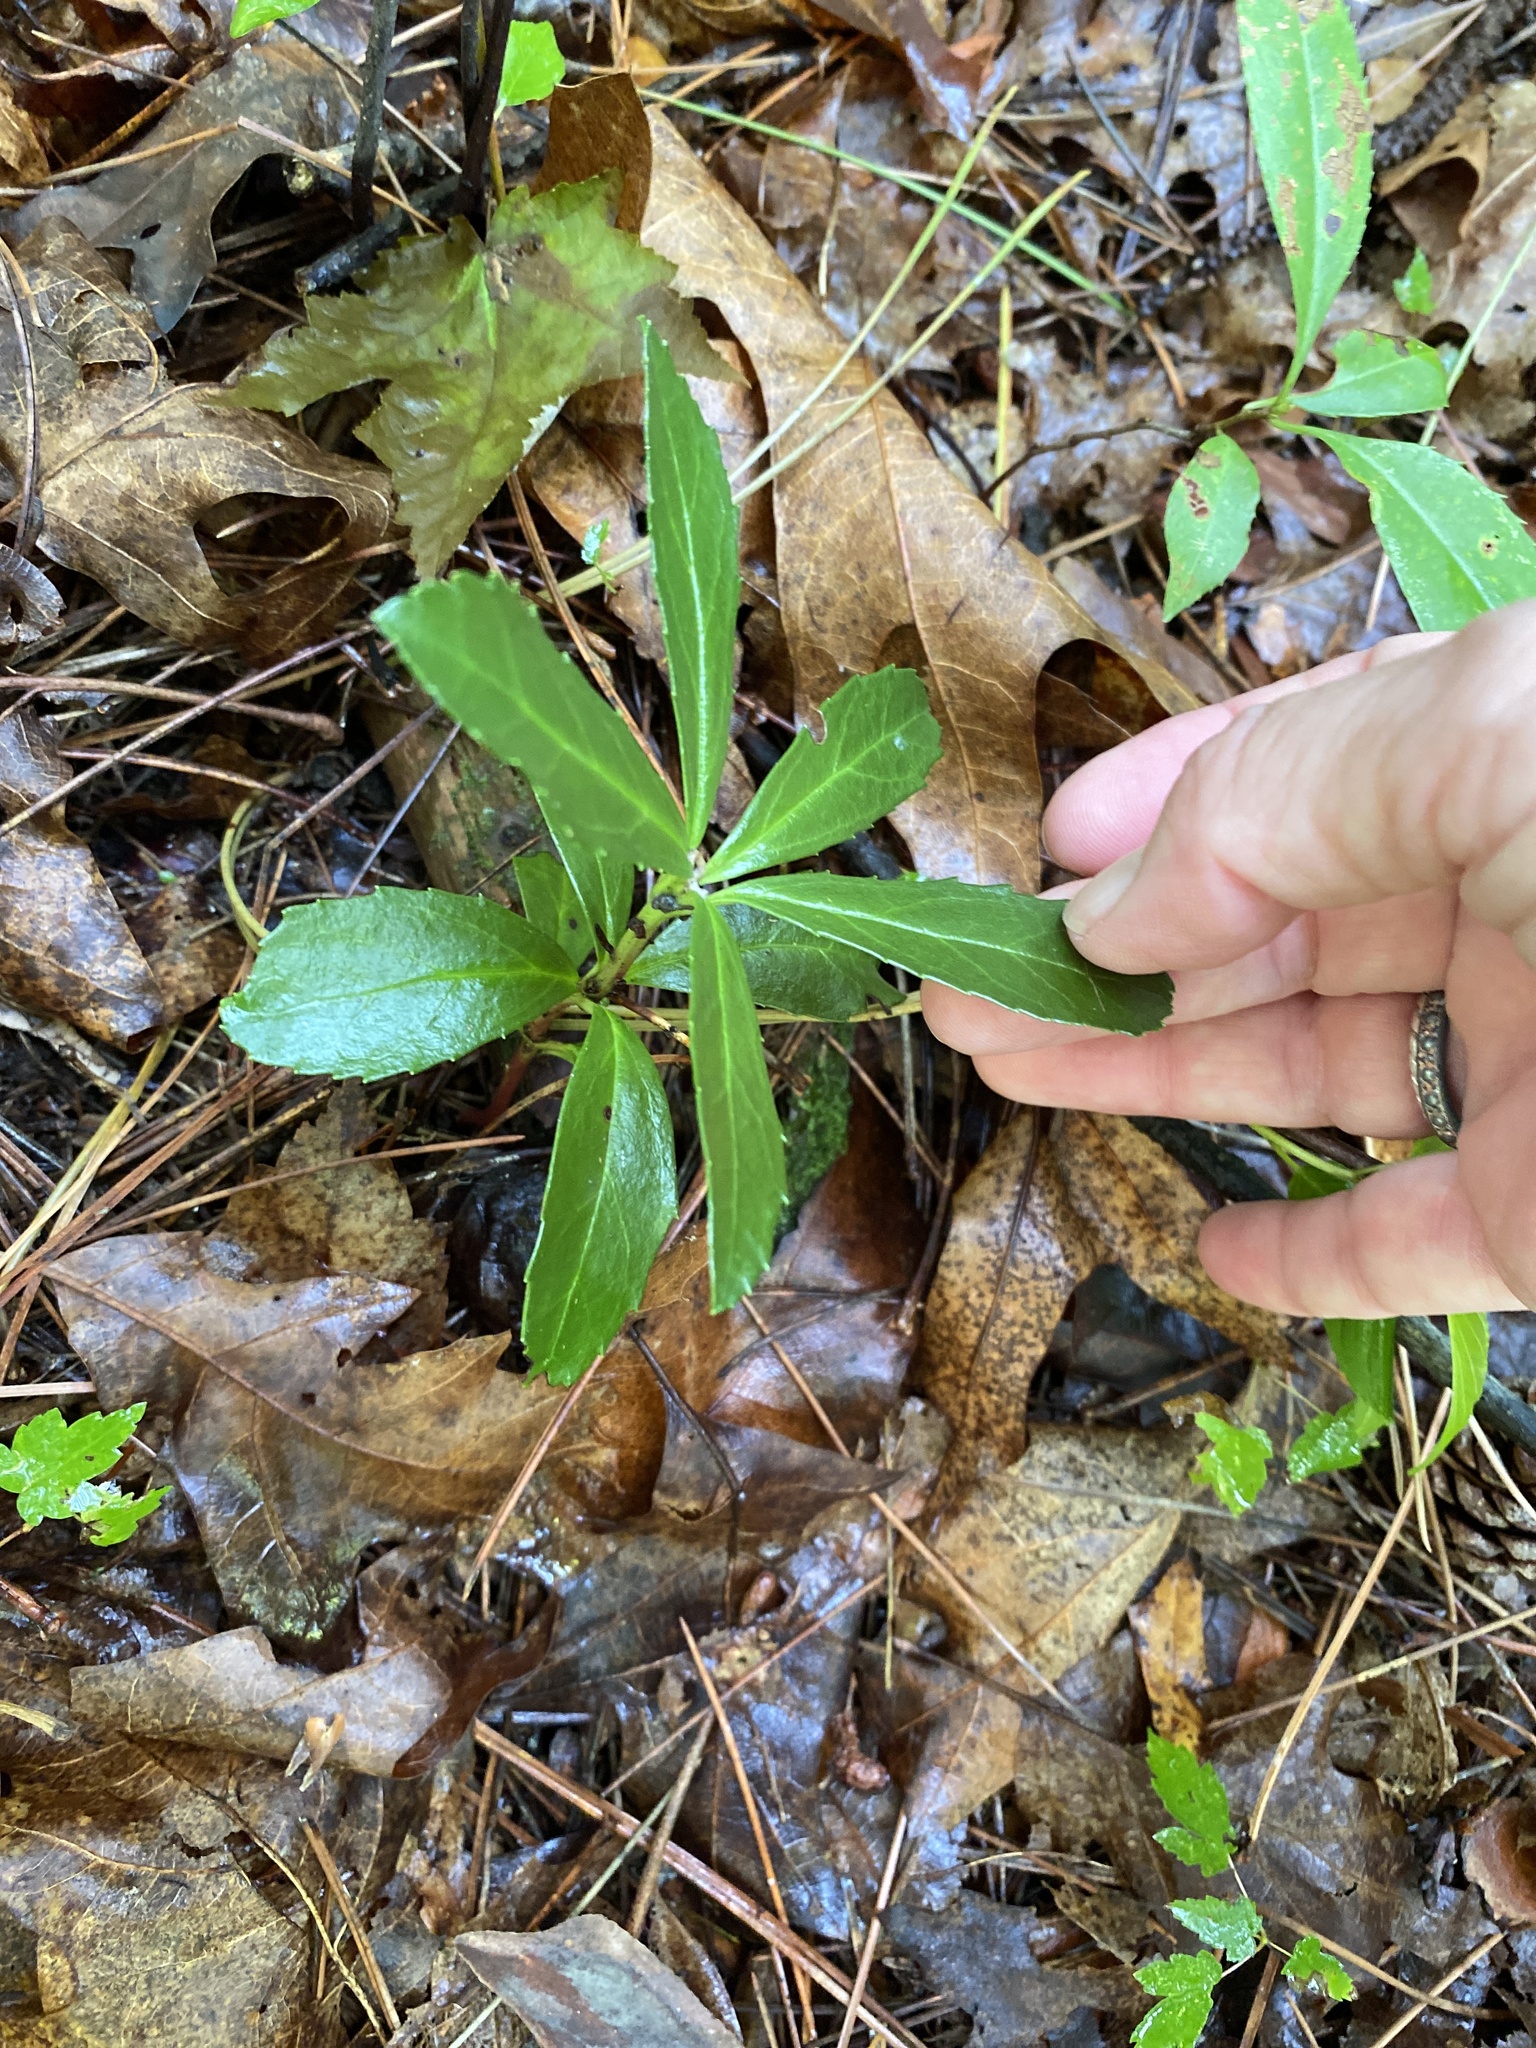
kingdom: Plantae
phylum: Tracheophyta
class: Magnoliopsida
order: Ericales
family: Ericaceae
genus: Chimaphila
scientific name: Chimaphila umbellata
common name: Pipsissewa
